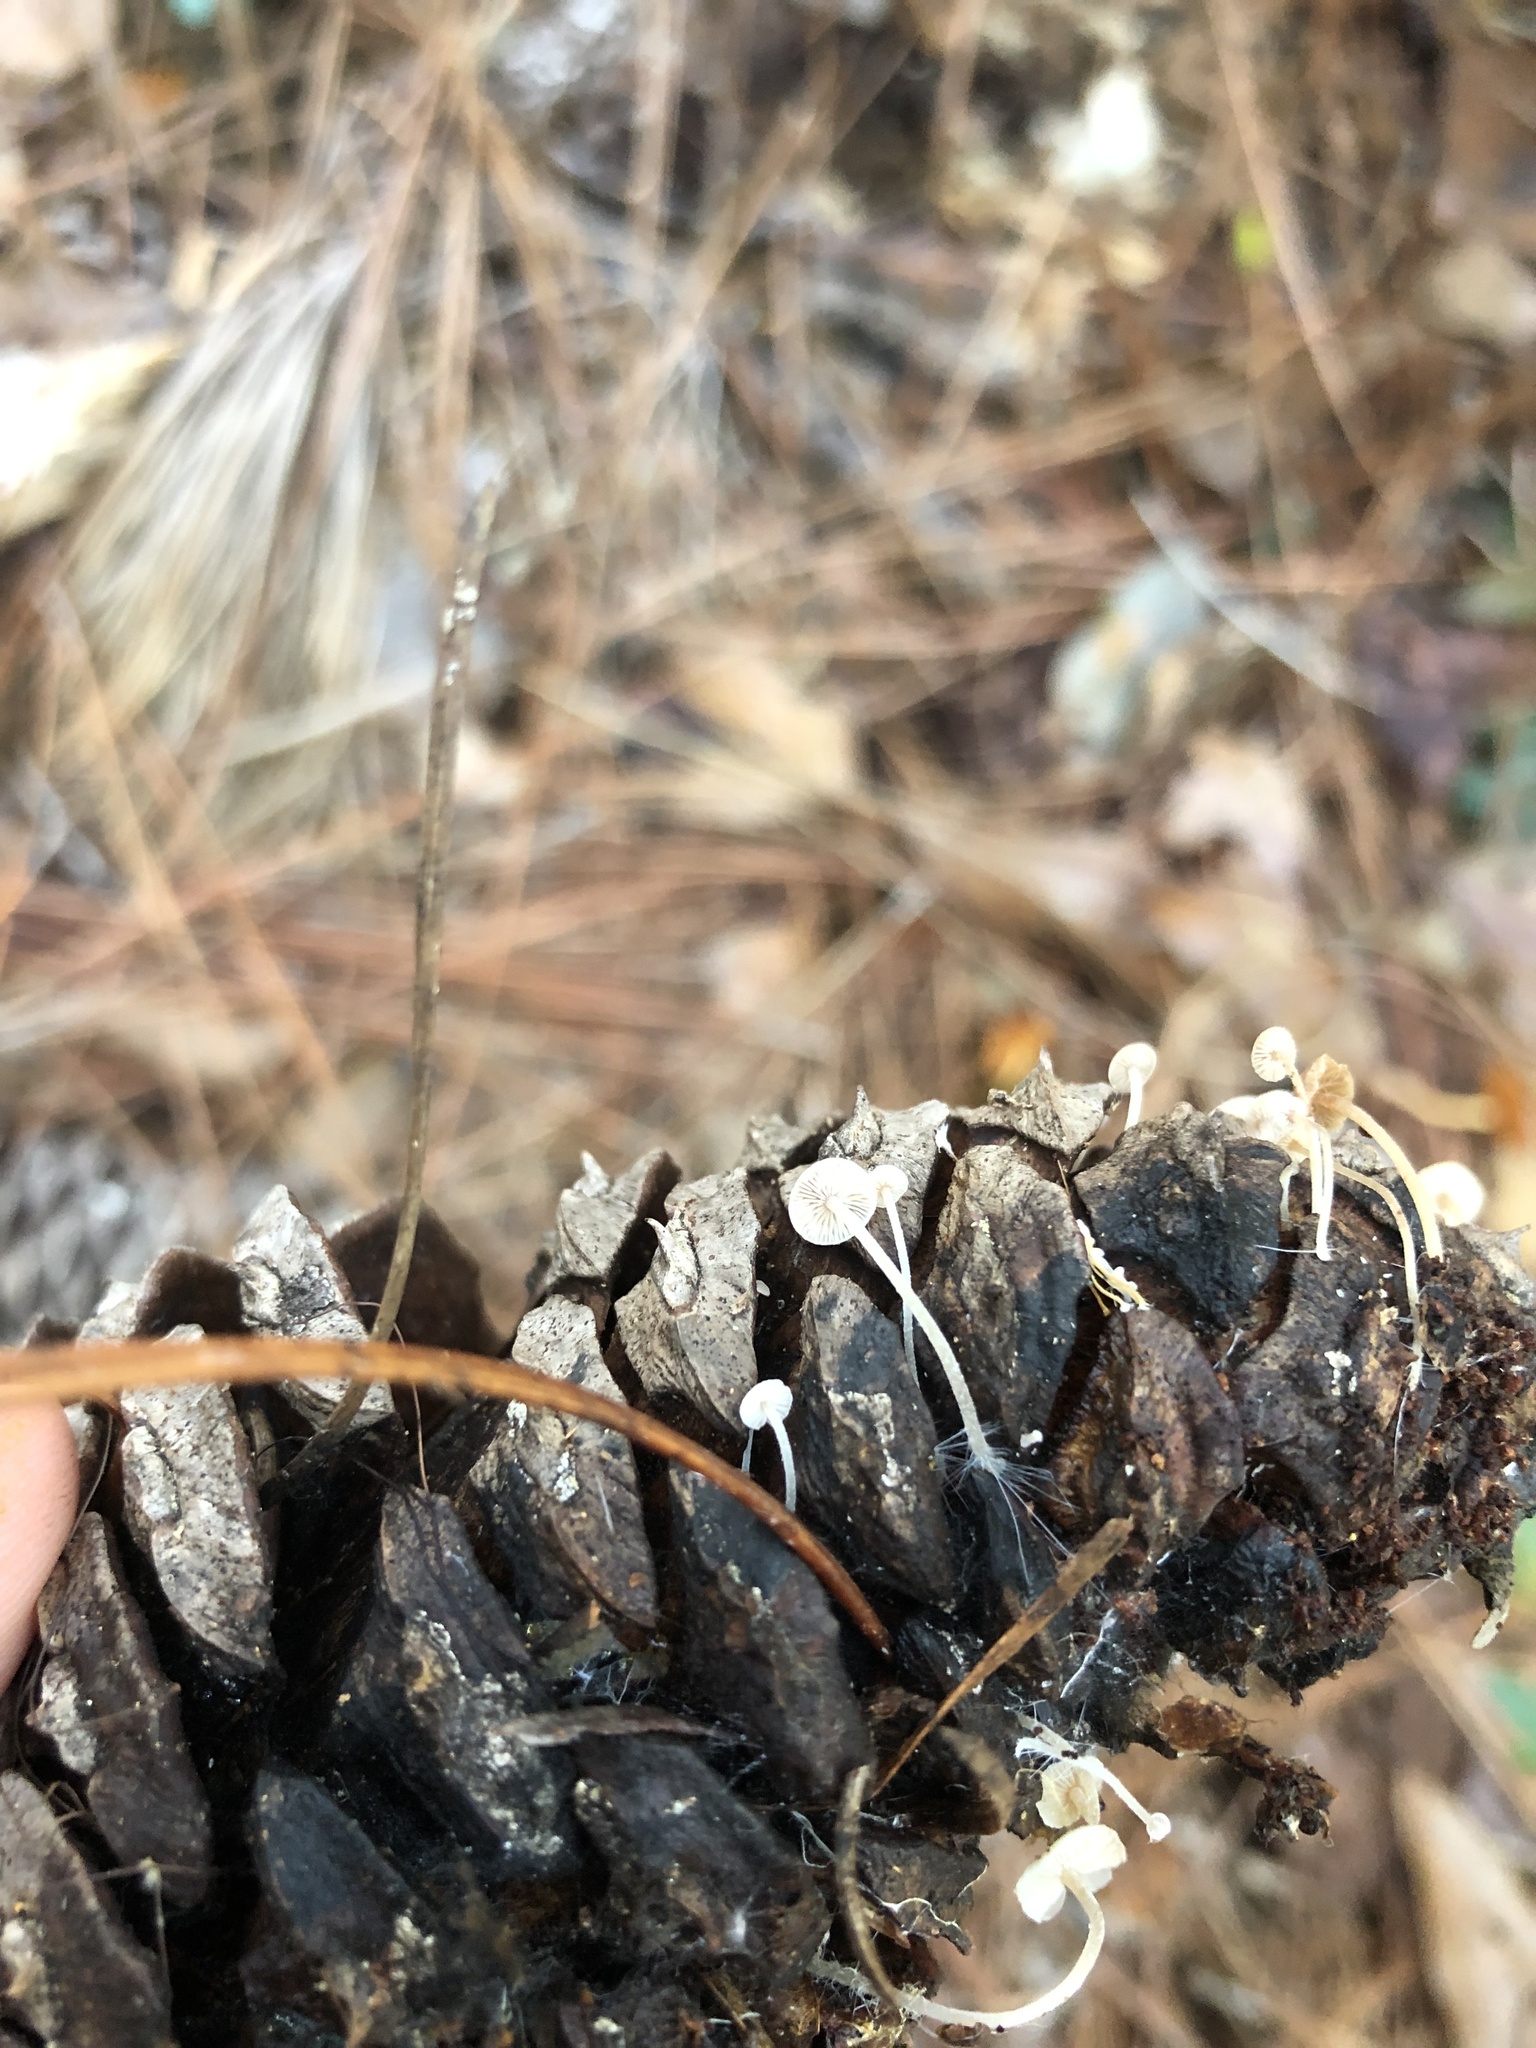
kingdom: Fungi
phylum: Basidiomycota
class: Agaricomycetes
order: Agaricales
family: Marasmiaceae
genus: Baeospora
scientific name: Baeospora myosura
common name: Conifercone cap
